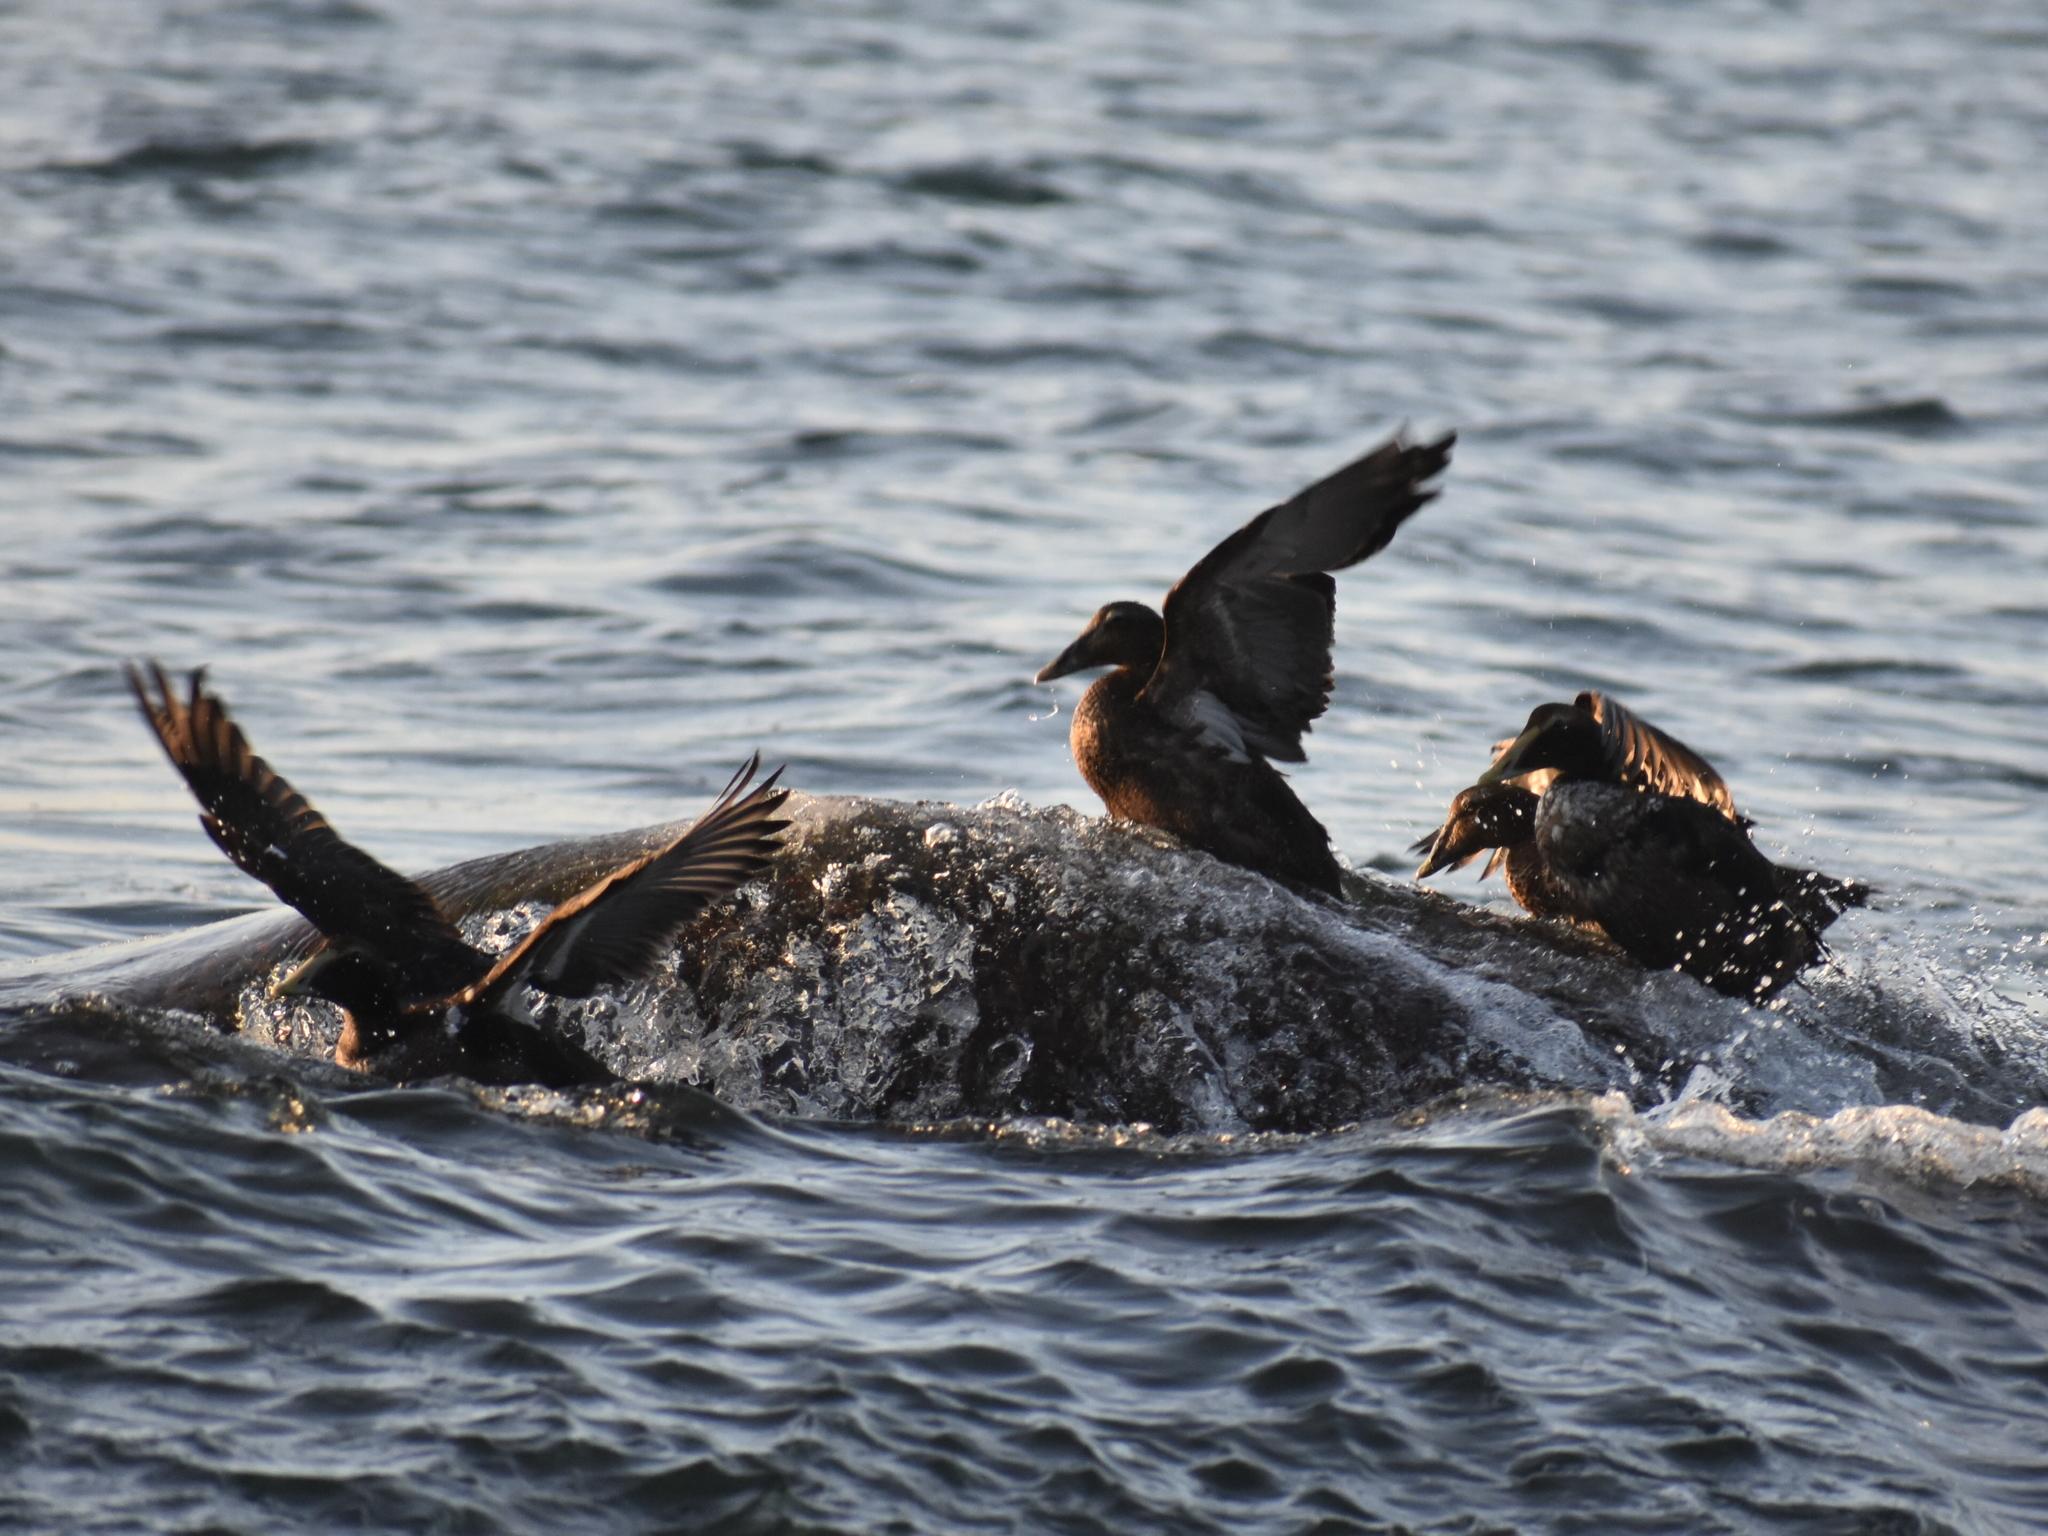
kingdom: Animalia
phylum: Chordata
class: Aves
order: Anseriformes
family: Anatidae
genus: Somateria
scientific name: Somateria mollissima
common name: Common eider
